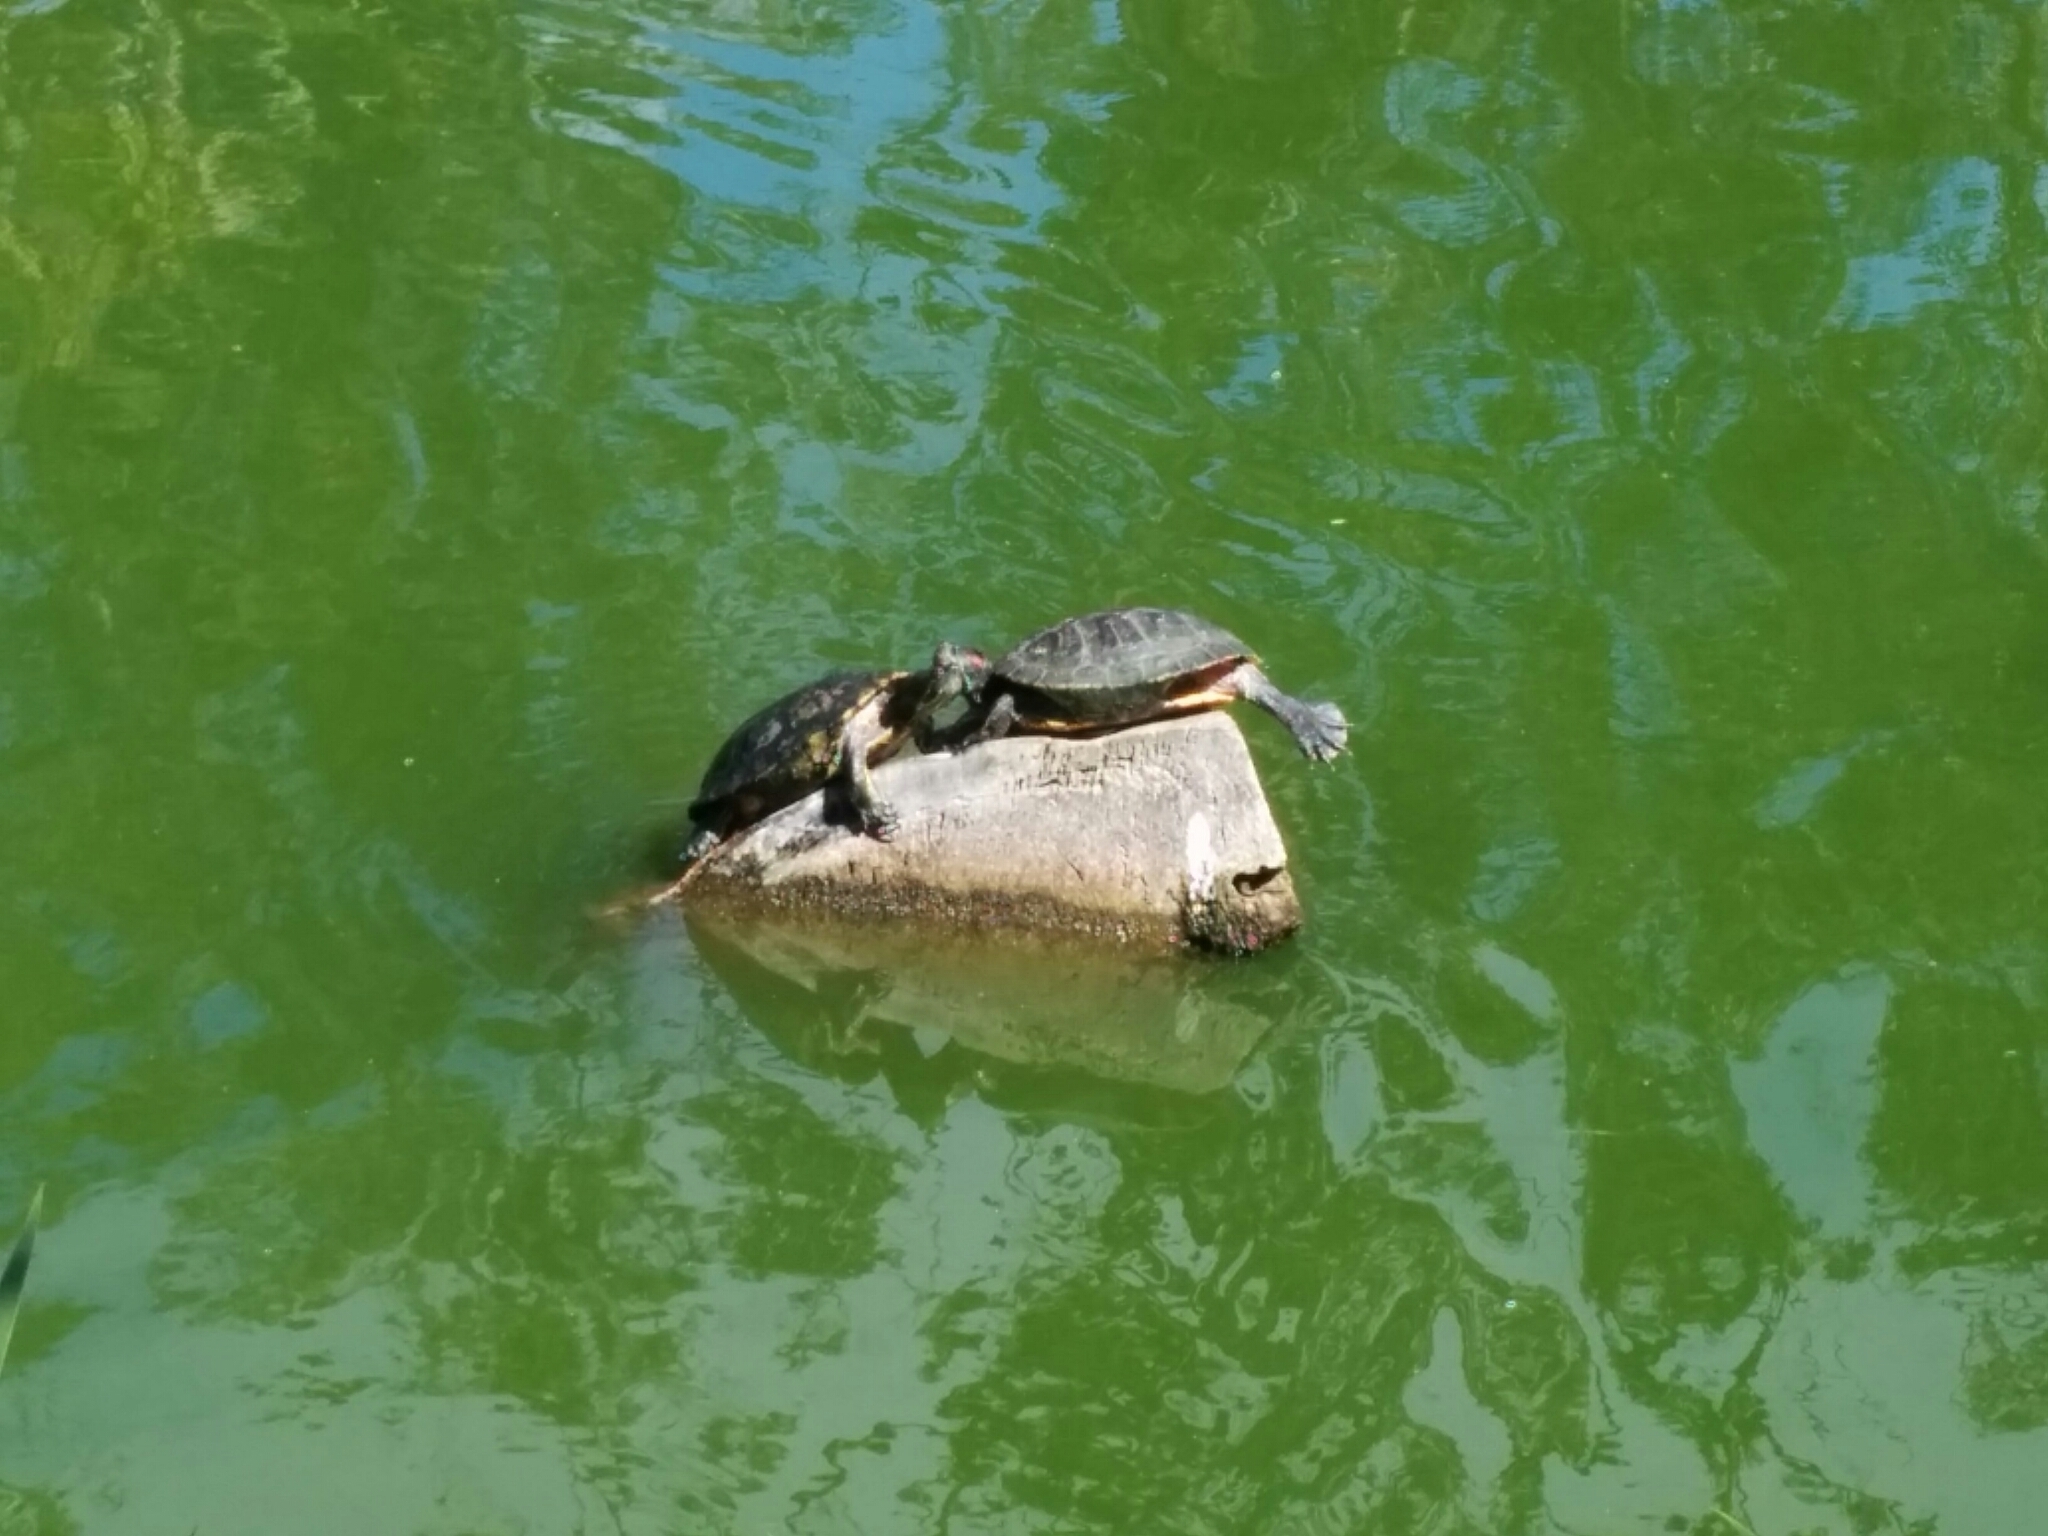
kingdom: Animalia
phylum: Chordata
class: Testudines
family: Emydidae
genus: Trachemys
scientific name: Trachemys scripta
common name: Slider
